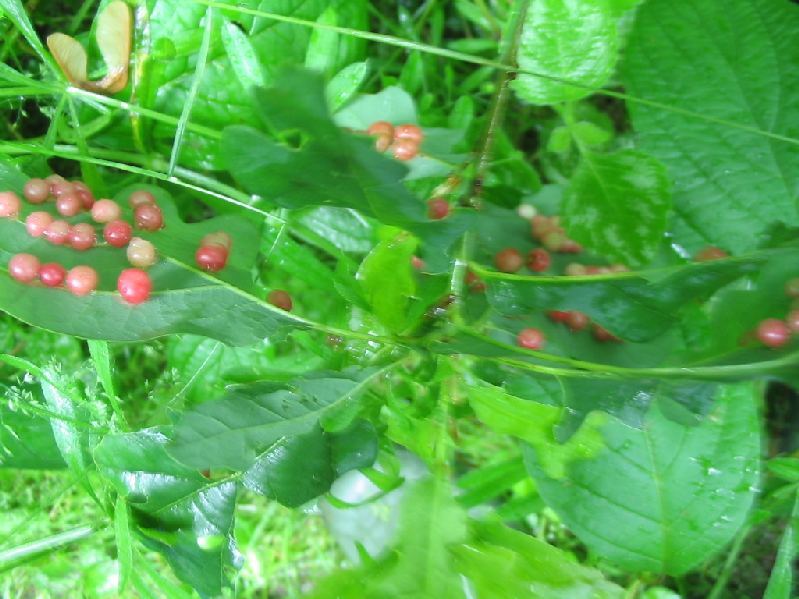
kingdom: Animalia
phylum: Arthropoda
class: Insecta
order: Hymenoptera
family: Cynipidae
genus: Cynips
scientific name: Cynips divisa
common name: Red currant gall
